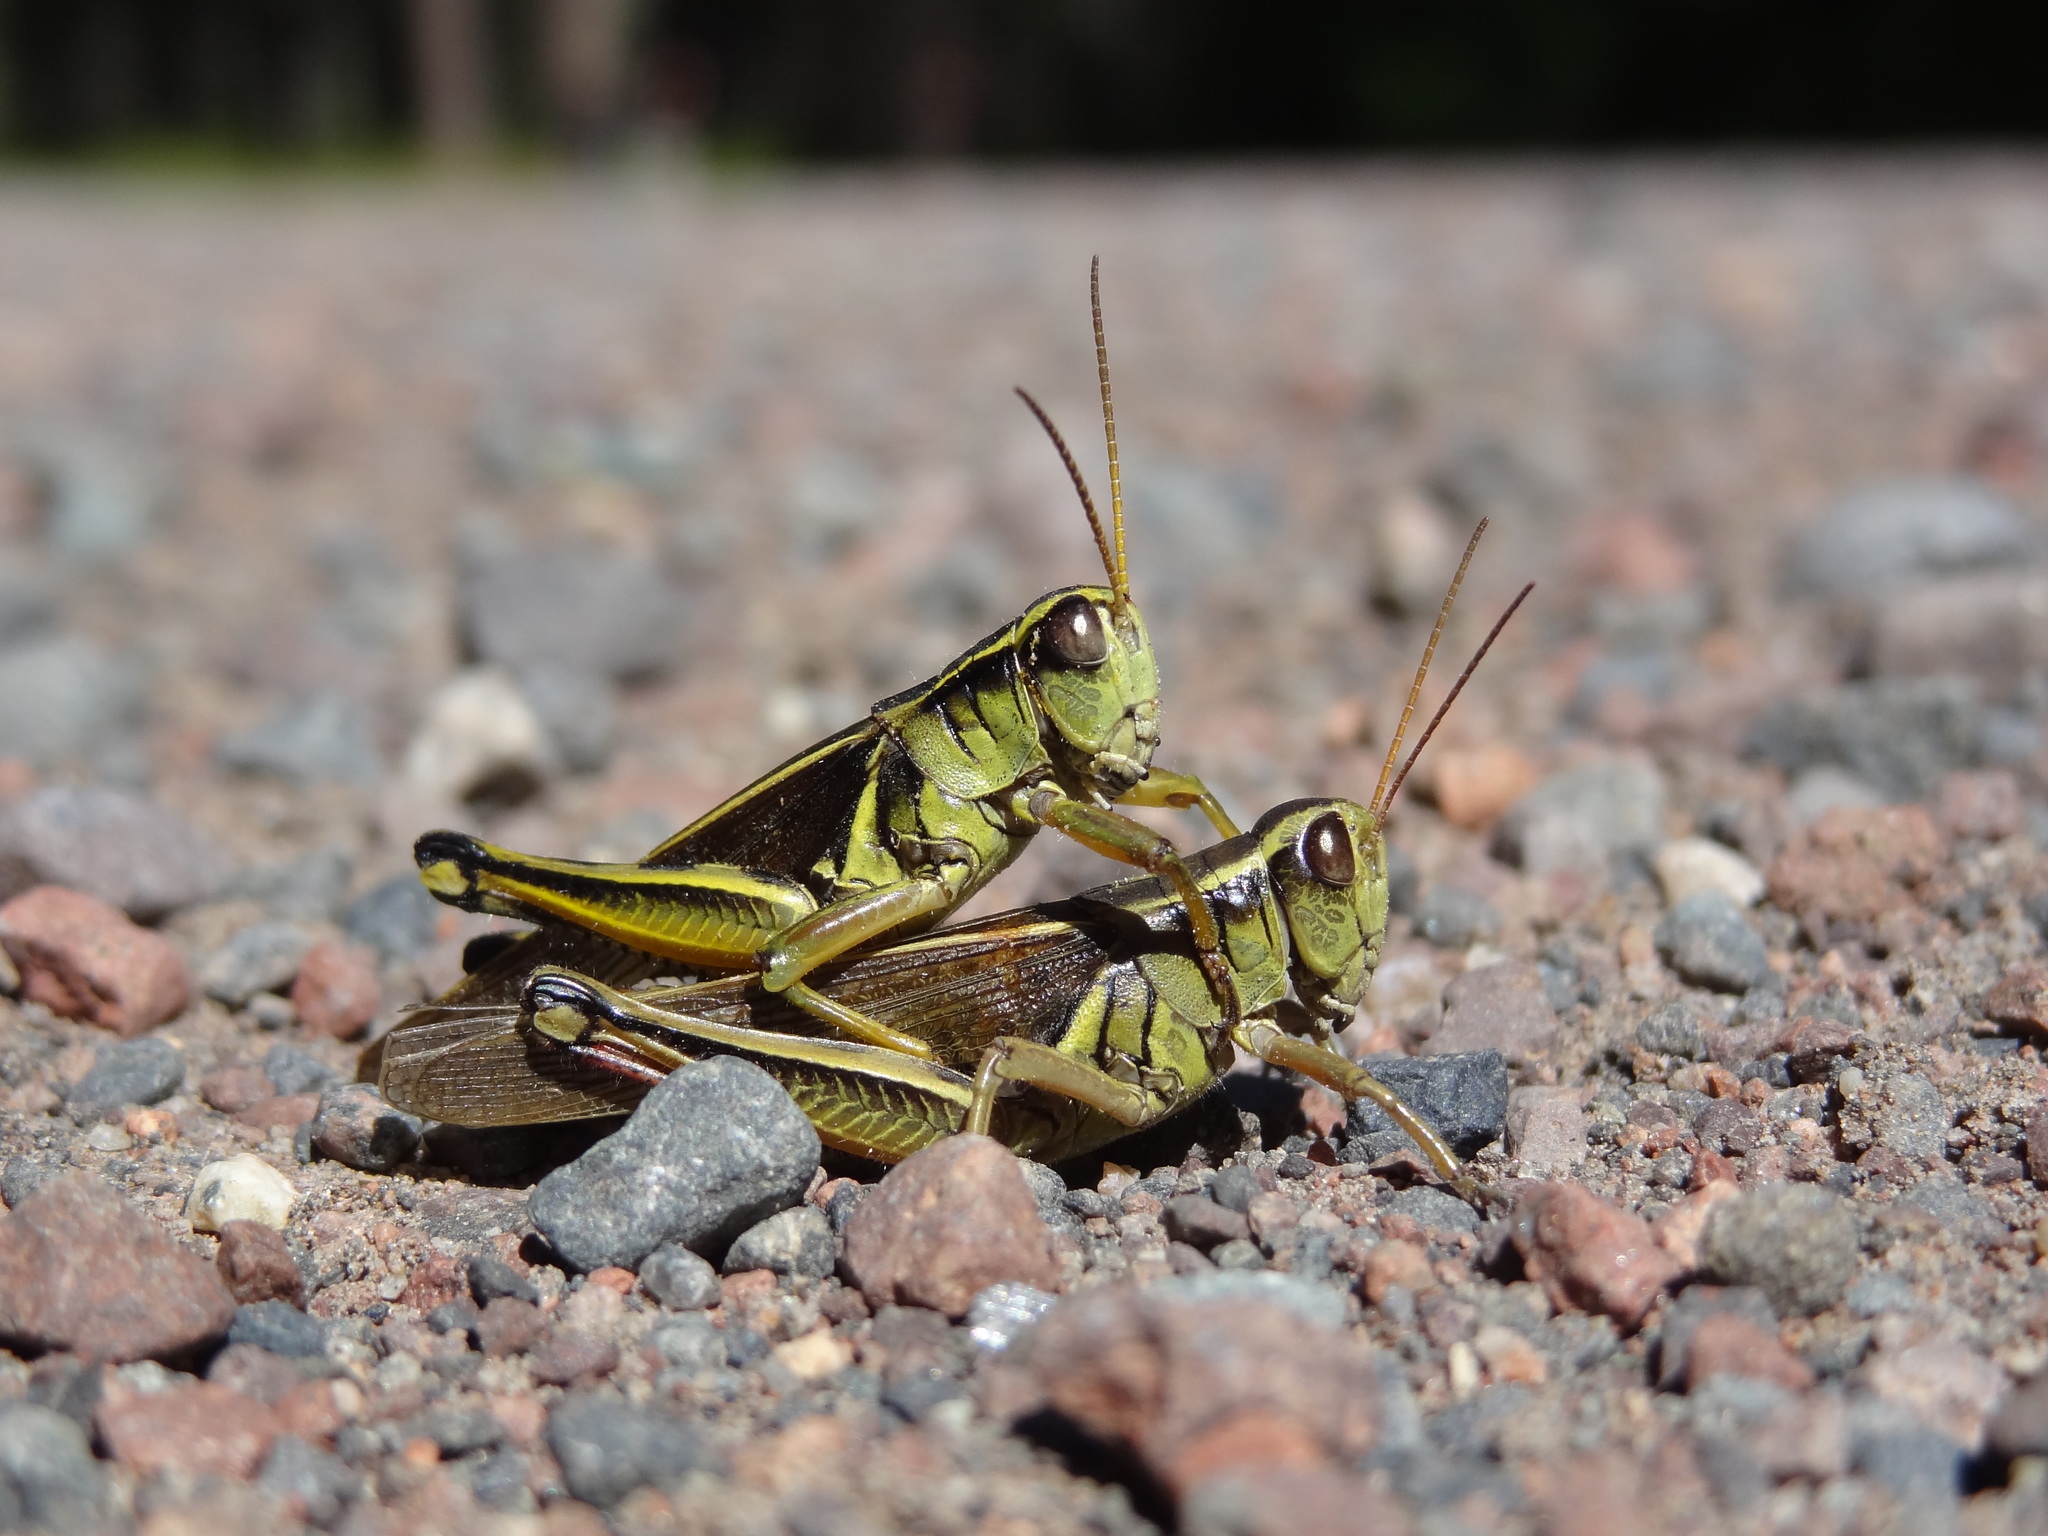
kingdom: Animalia
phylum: Arthropoda
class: Insecta
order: Orthoptera
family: Acrididae
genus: Melanoplus
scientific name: Melanoplus bivittatus
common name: Two-striped grasshopper
